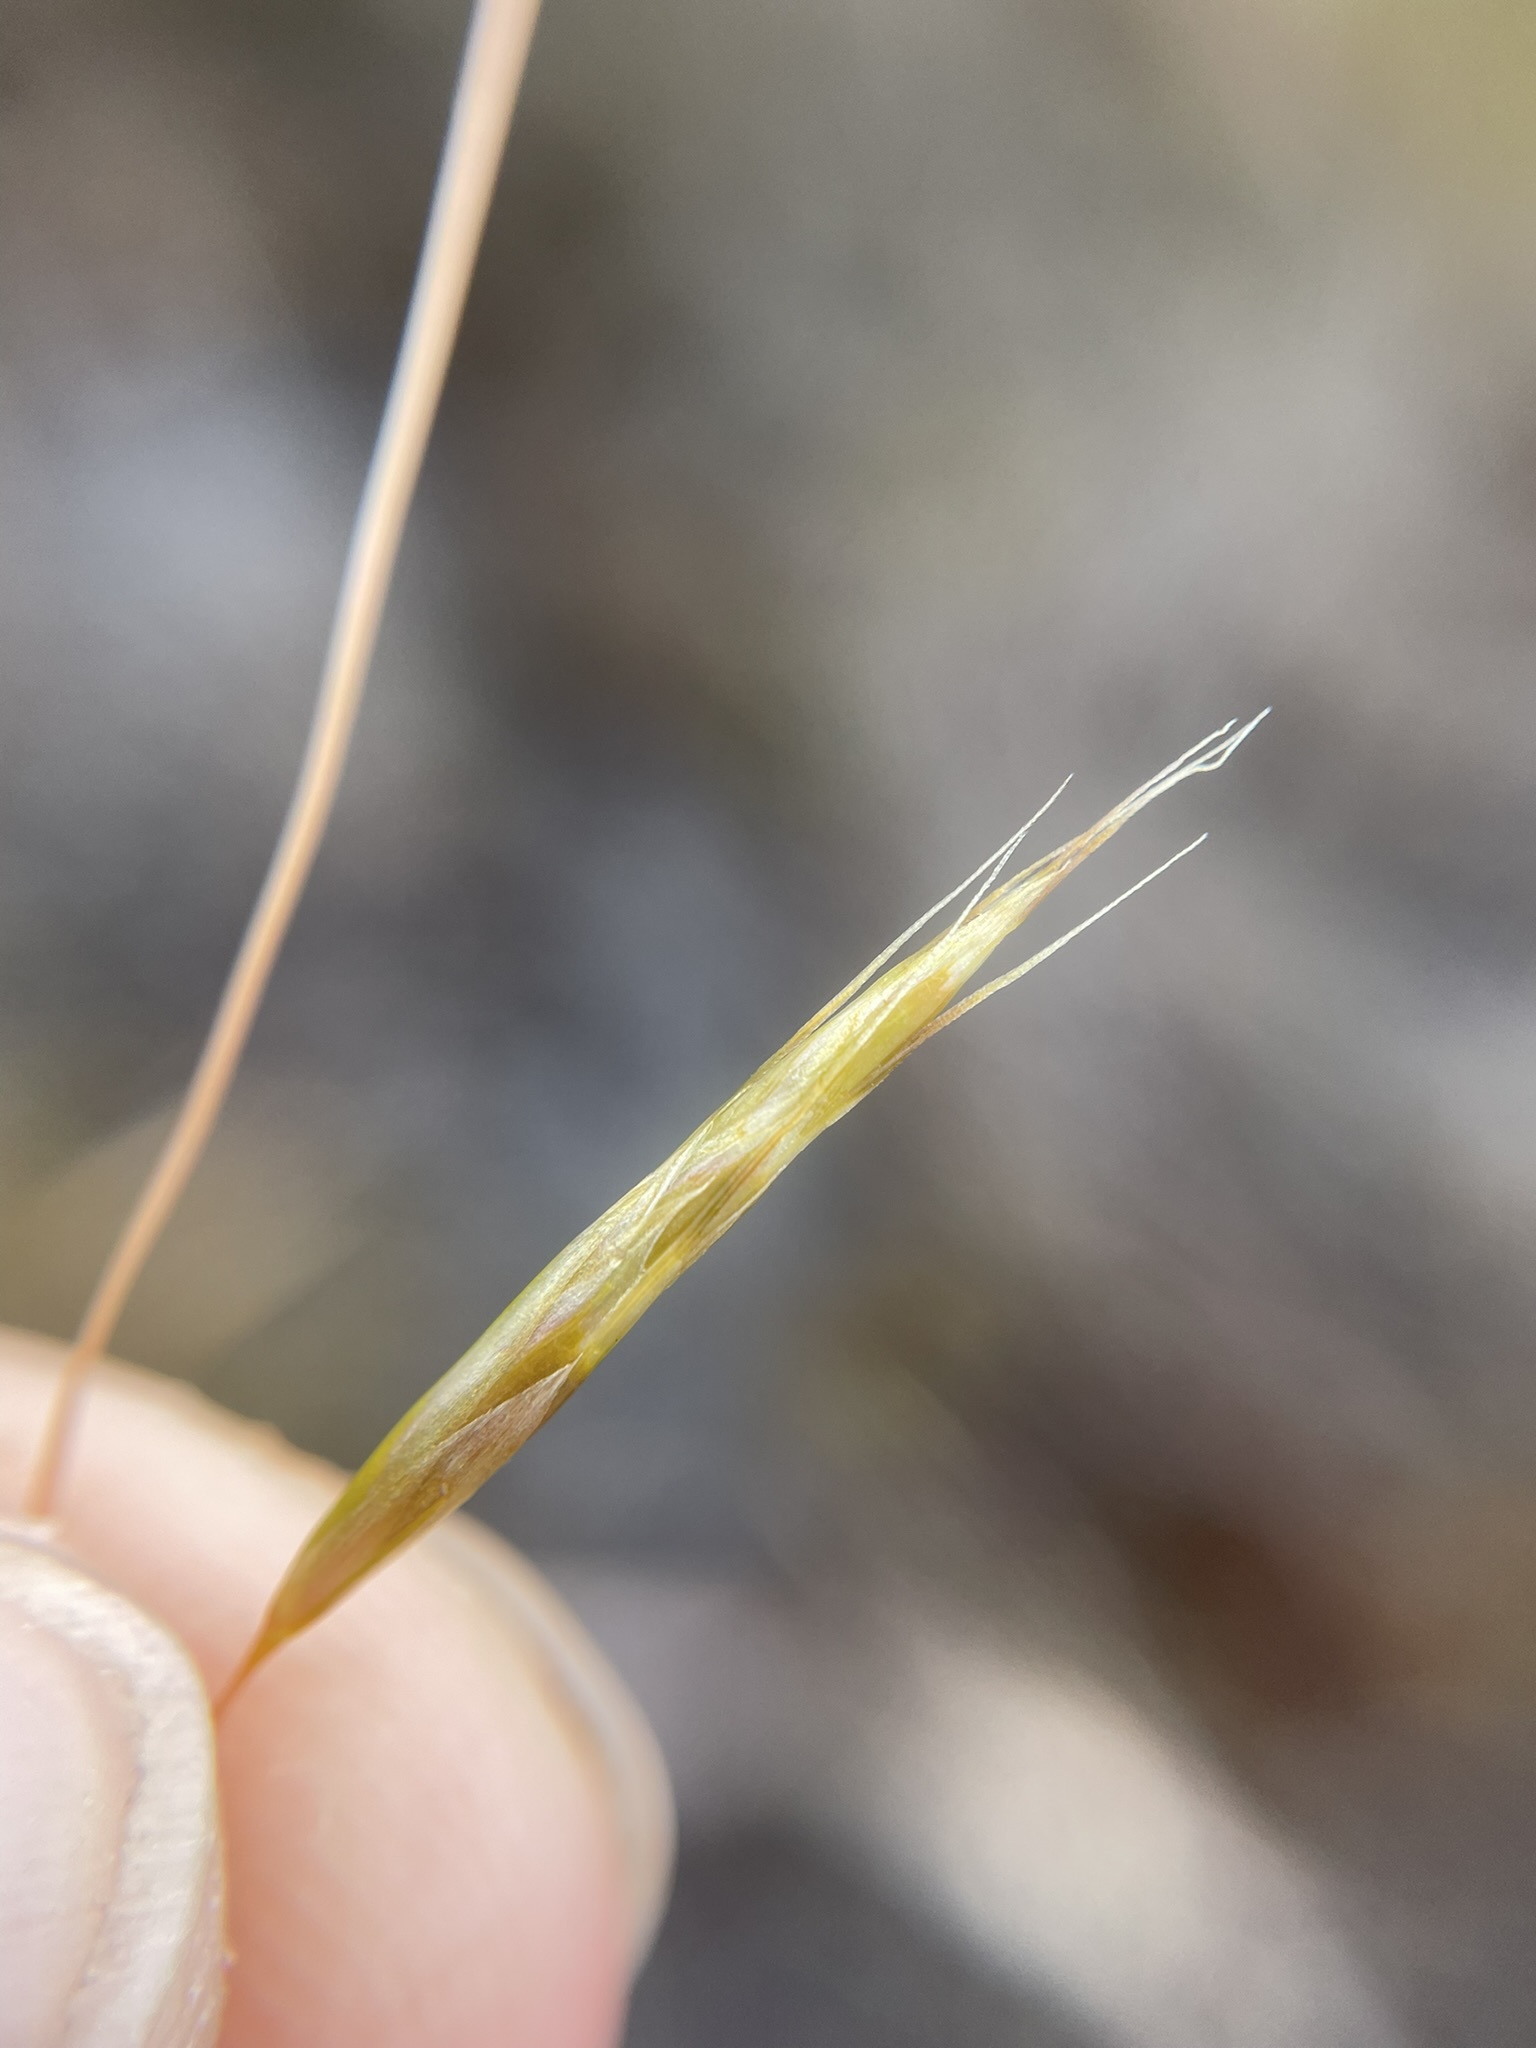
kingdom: Plantae
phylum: Tracheophyta
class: Liliopsida
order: Poales
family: Poaceae
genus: Chionochloa
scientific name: Chionochloa rubra
